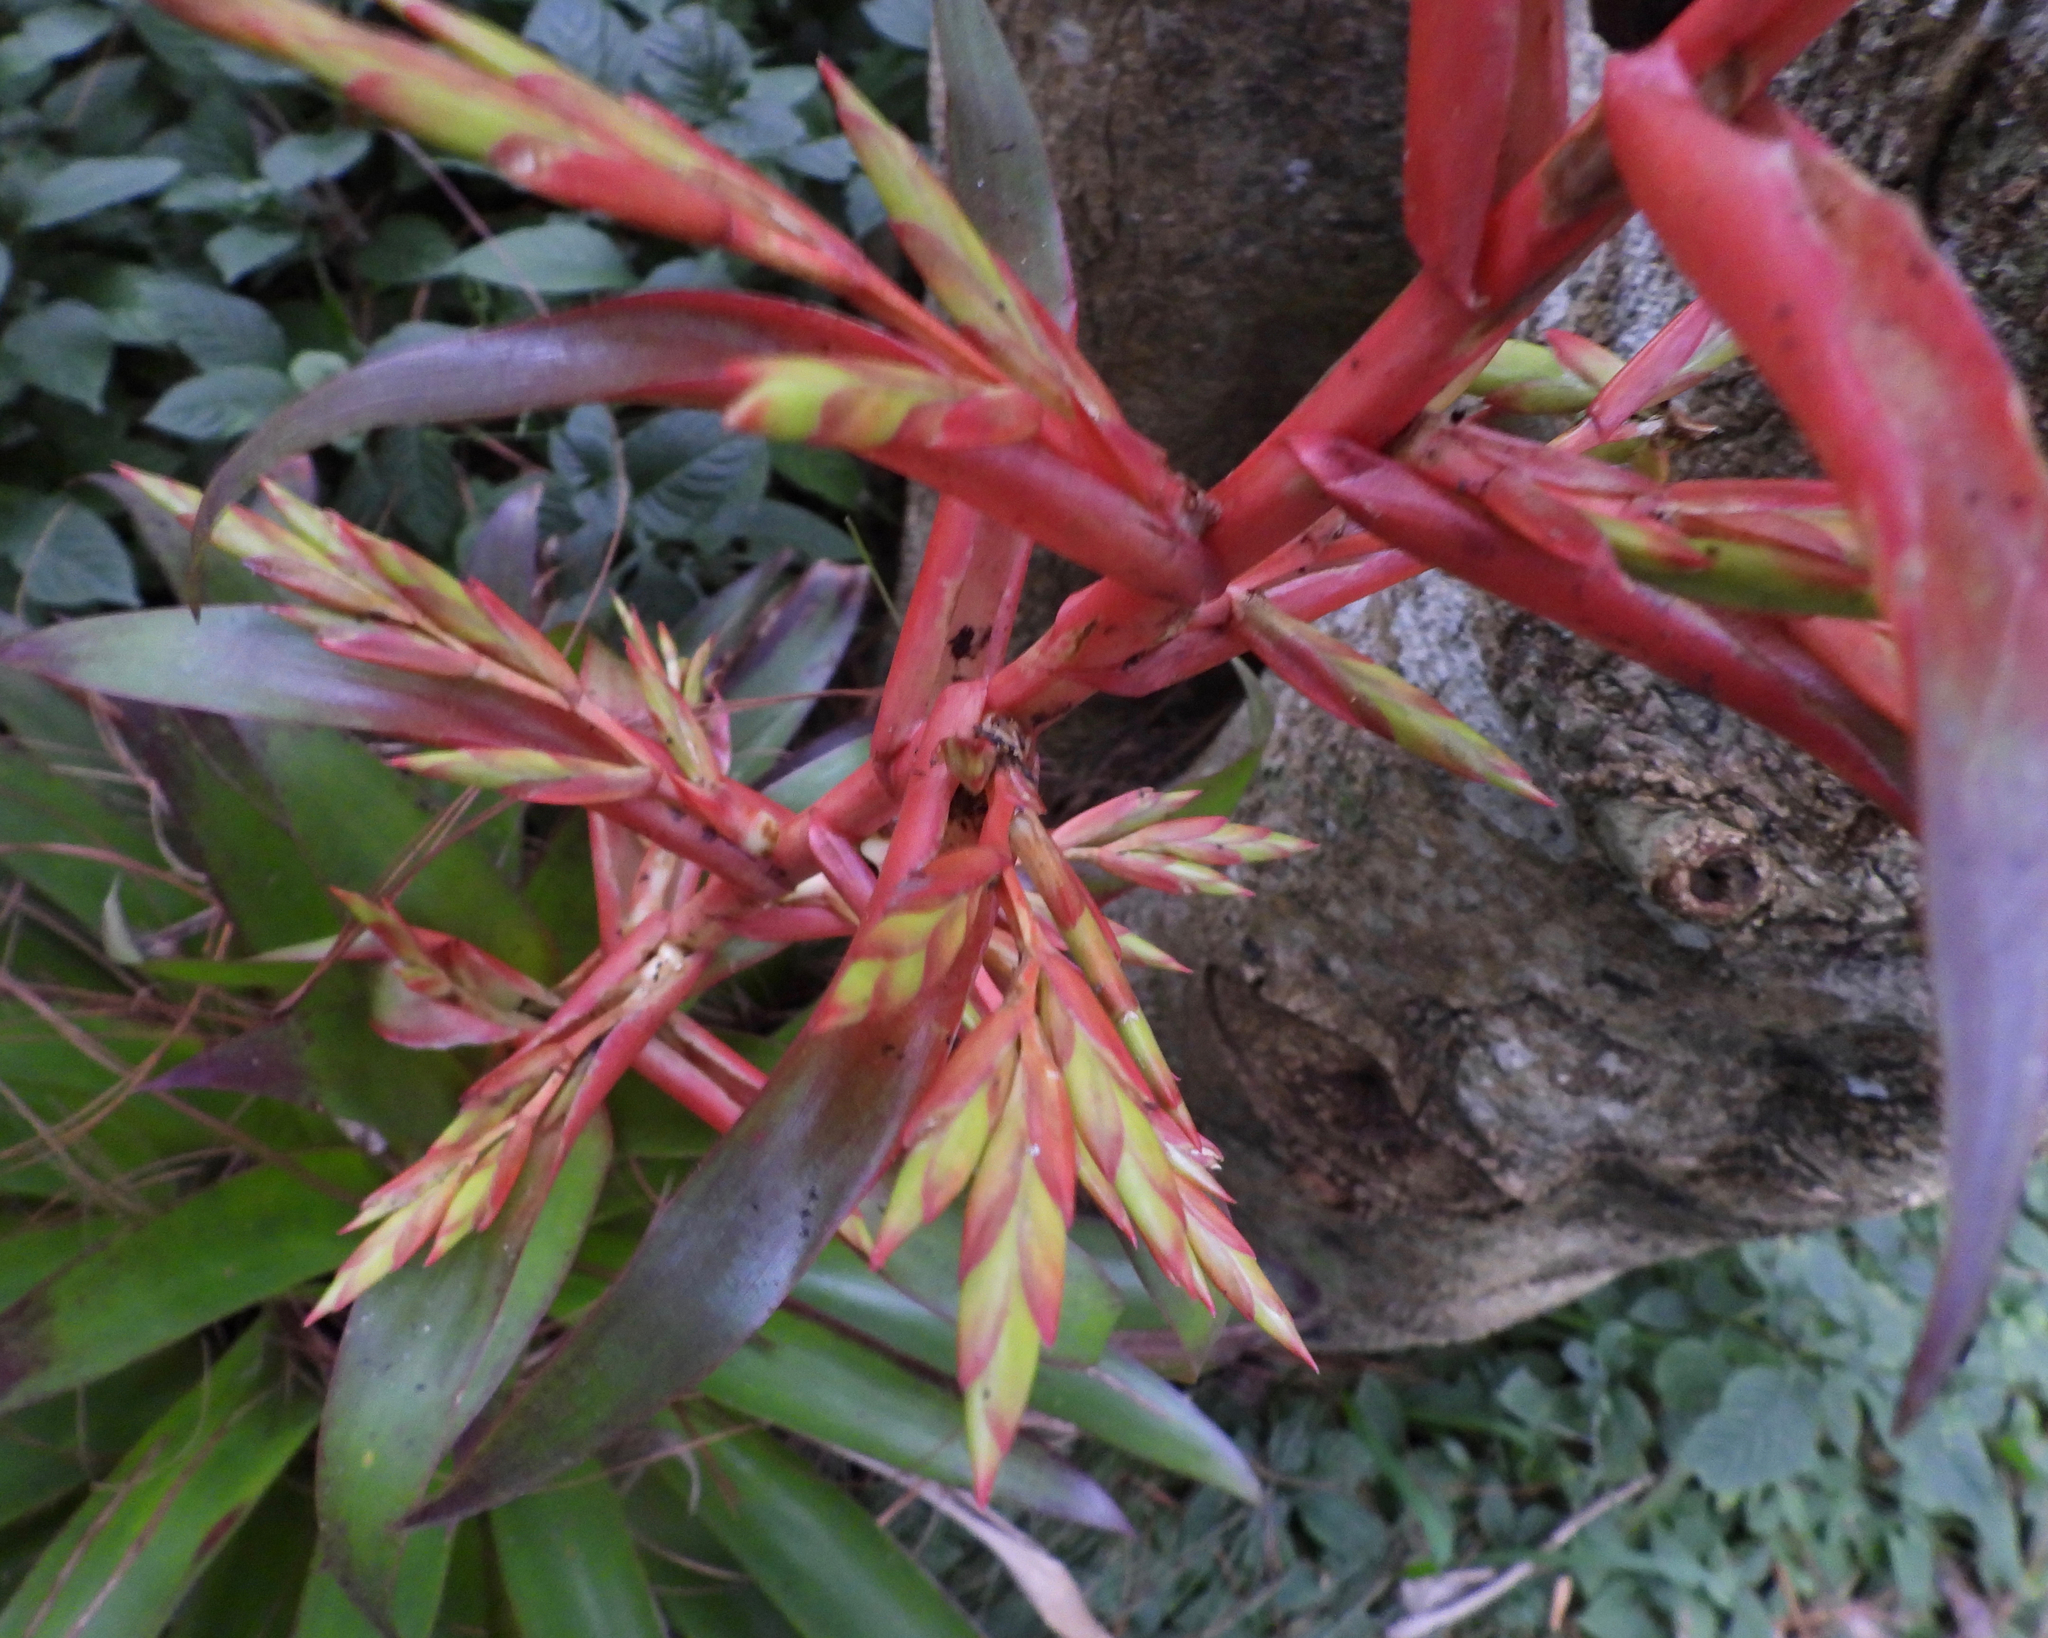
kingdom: Plantae
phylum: Tracheophyta
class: Liliopsida
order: Poales
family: Bromeliaceae
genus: Tillandsia
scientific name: Tillandsia guatemalensis
